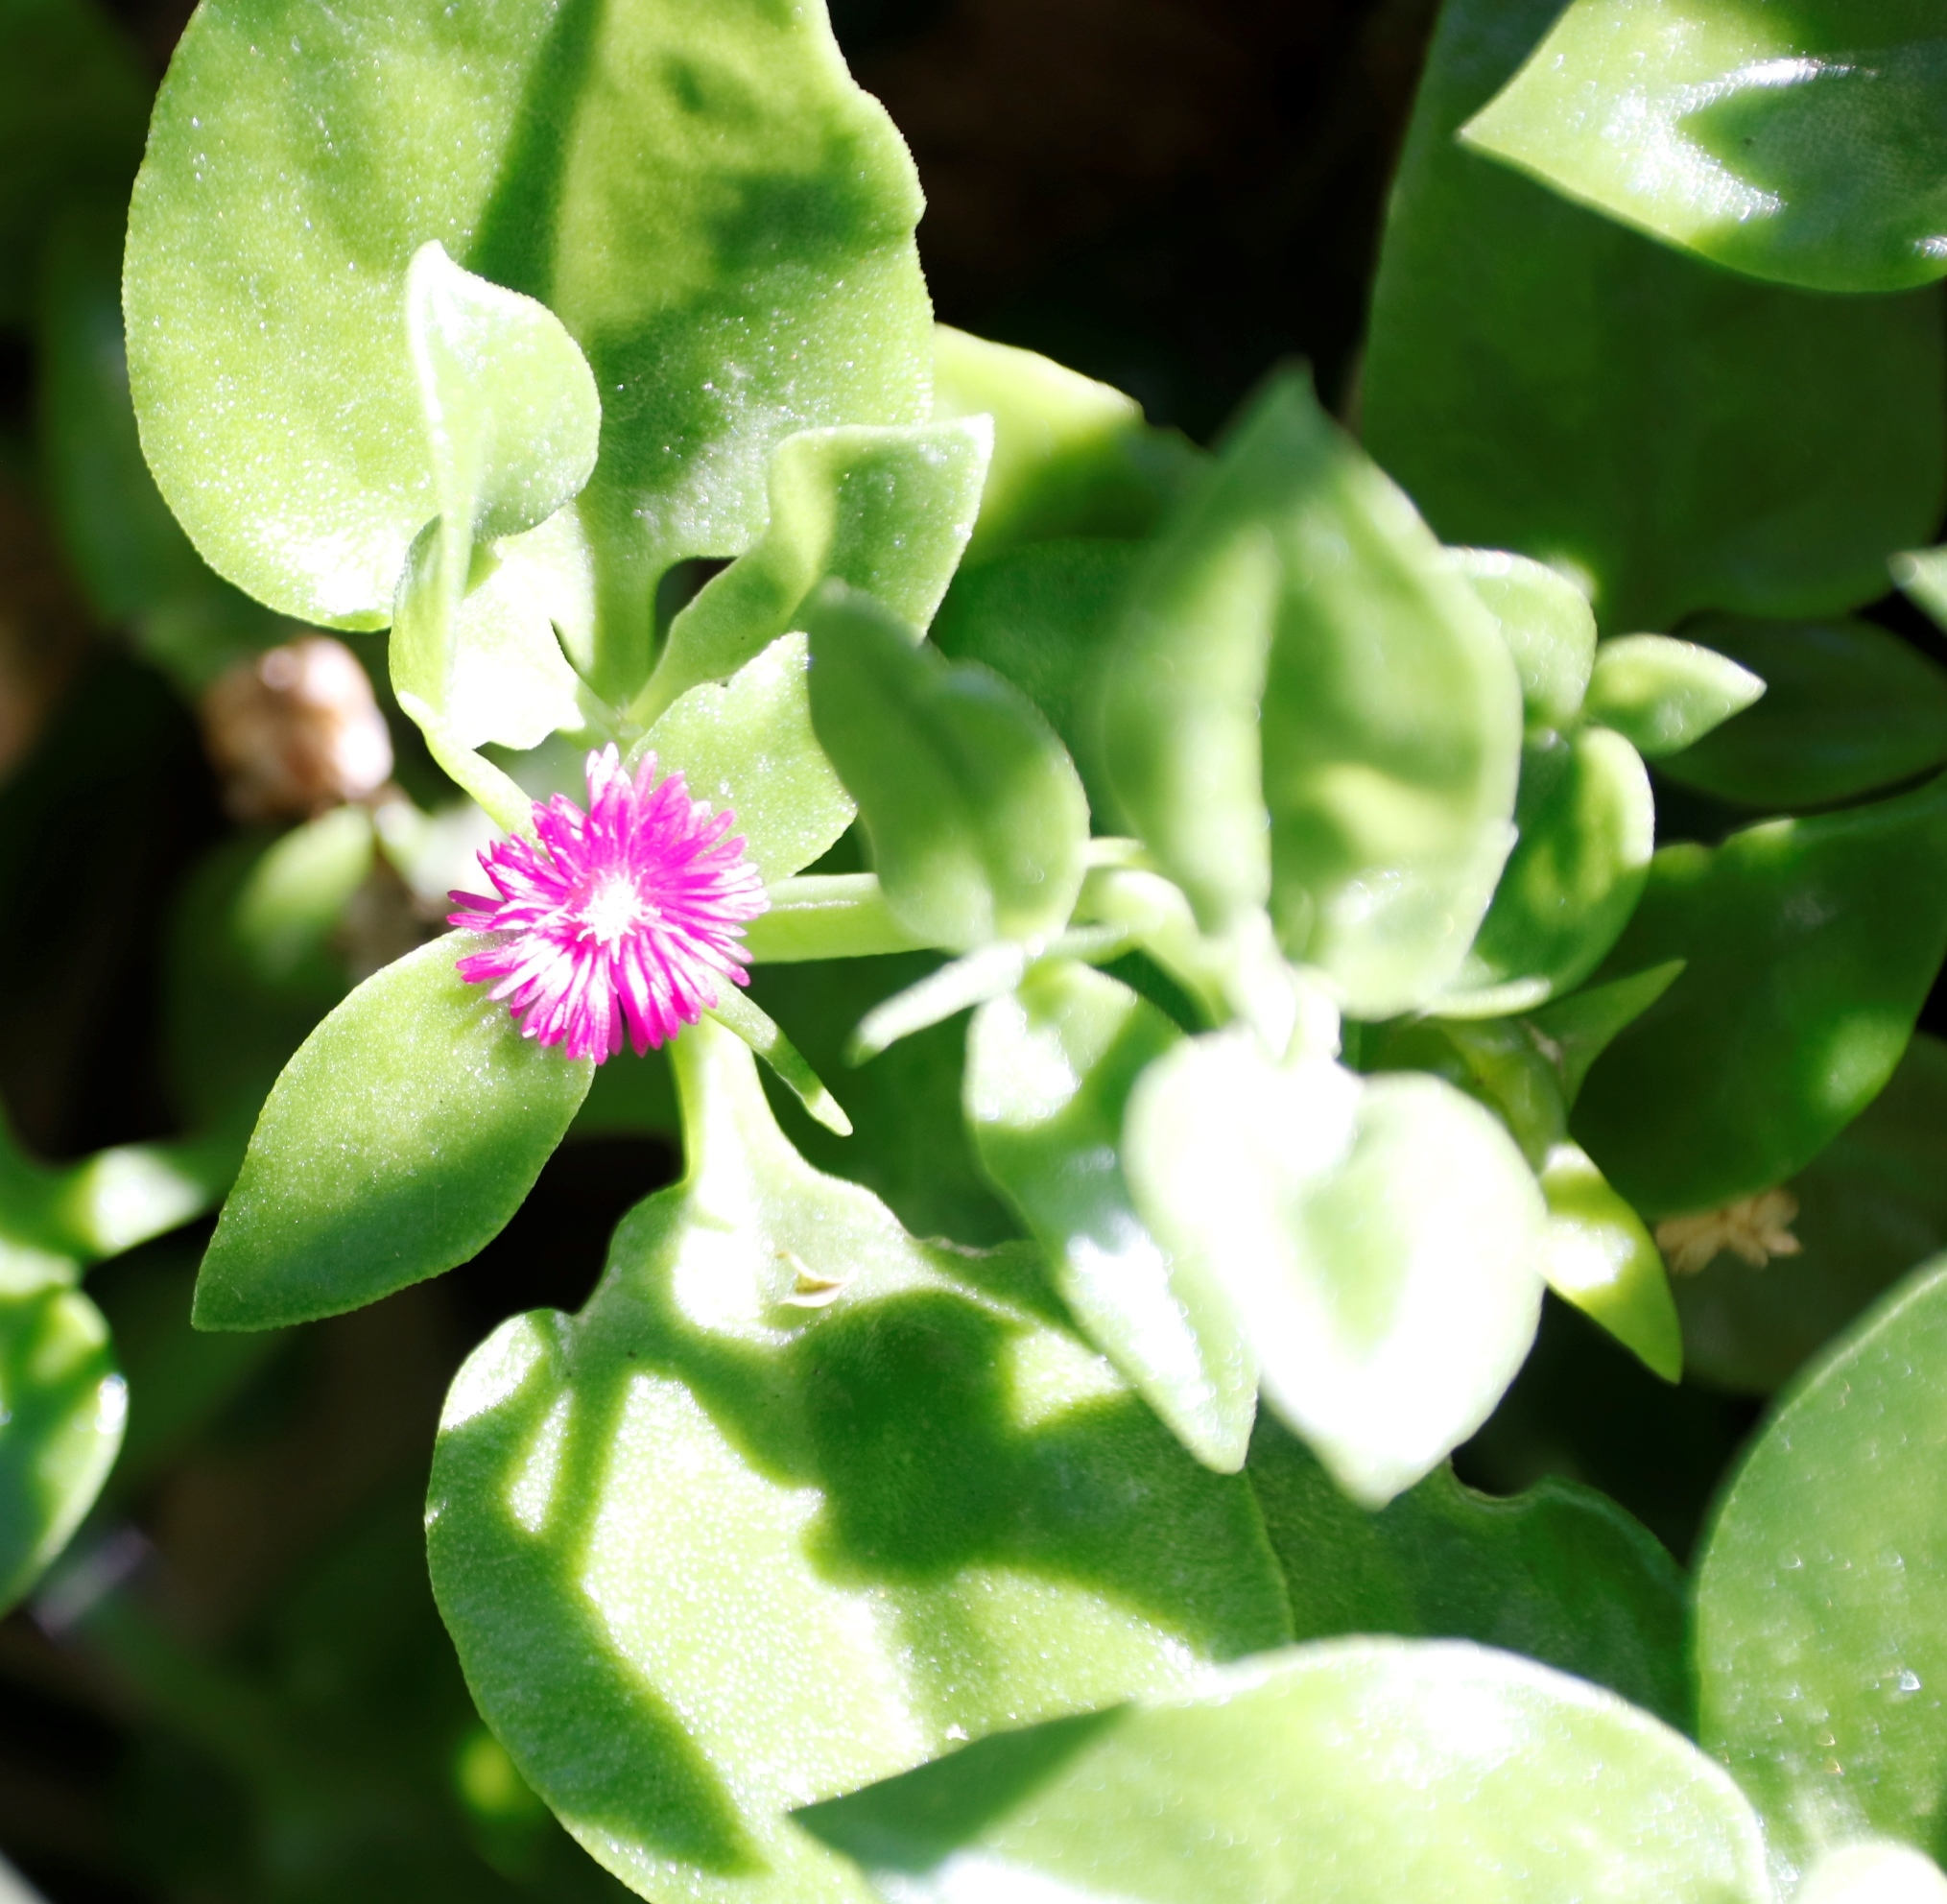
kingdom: Plantae
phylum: Tracheophyta
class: Magnoliopsida
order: Caryophyllales
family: Aizoaceae
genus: Mesembryanthemum
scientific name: Mesembryanthemum cordifolium
